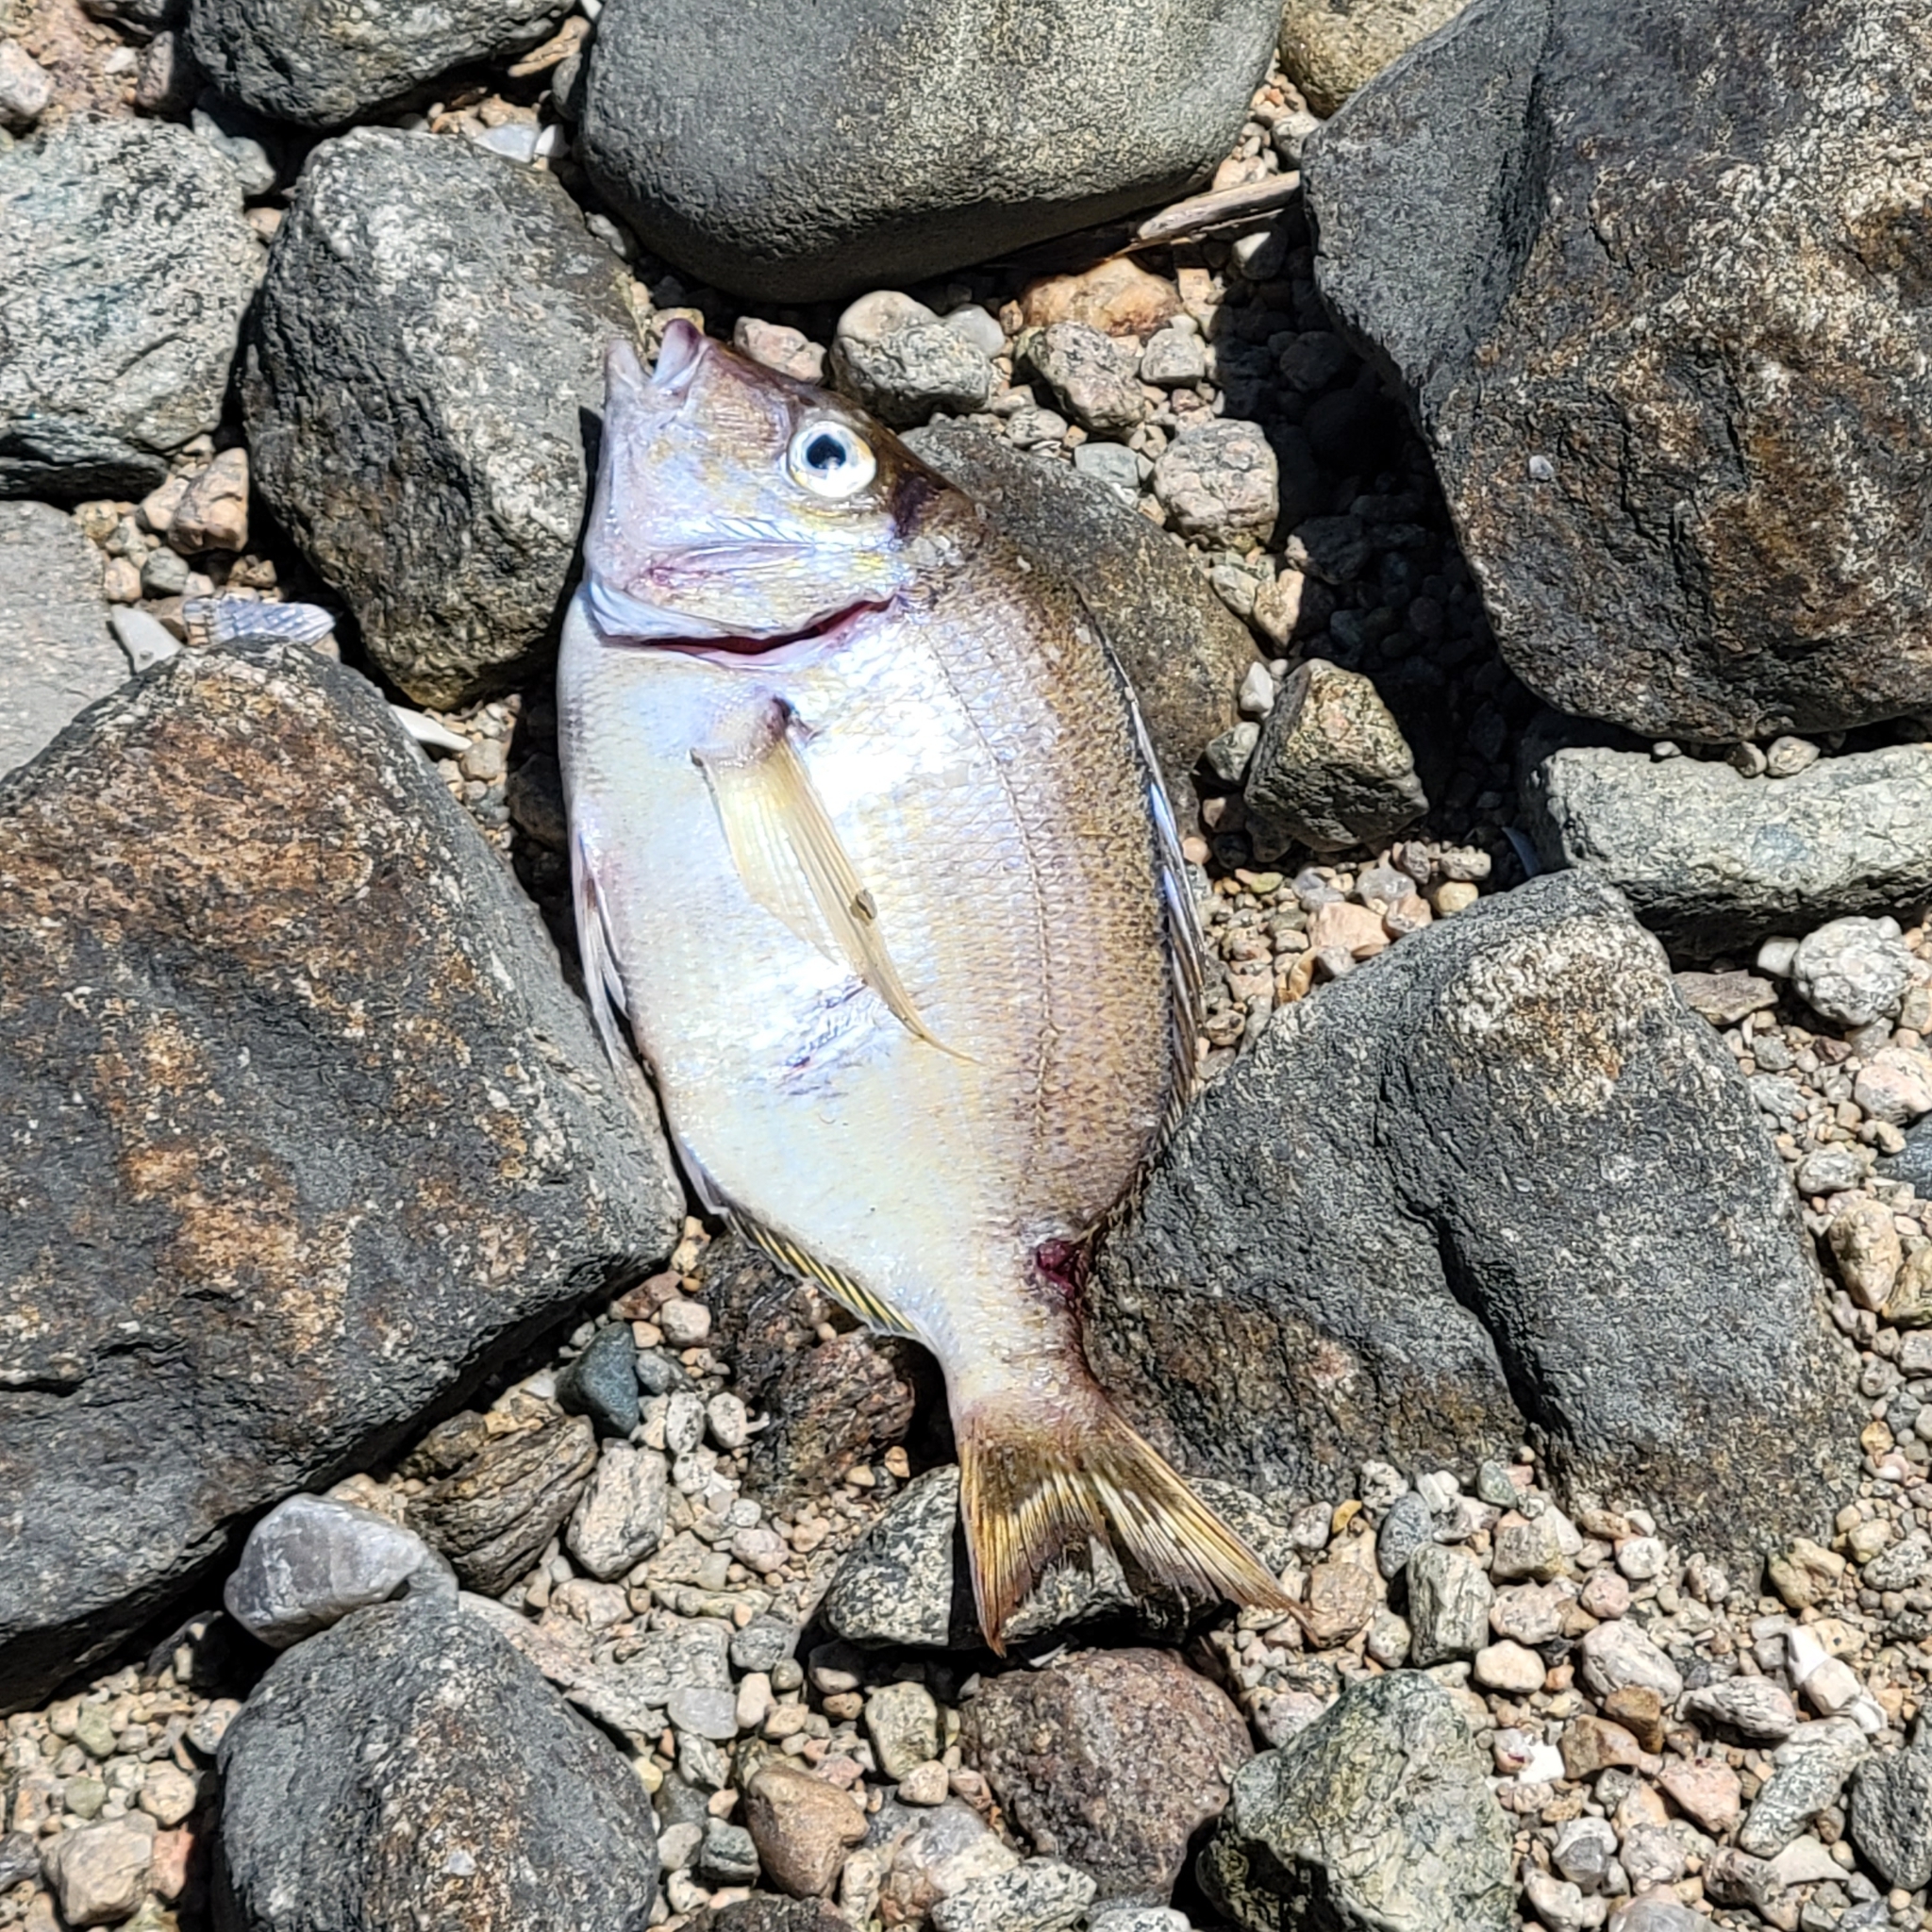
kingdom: Animalia
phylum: Chordata
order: Perciformes
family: Sparidae
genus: Stenotomus
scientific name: Stenotomus chrysops
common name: Scup
